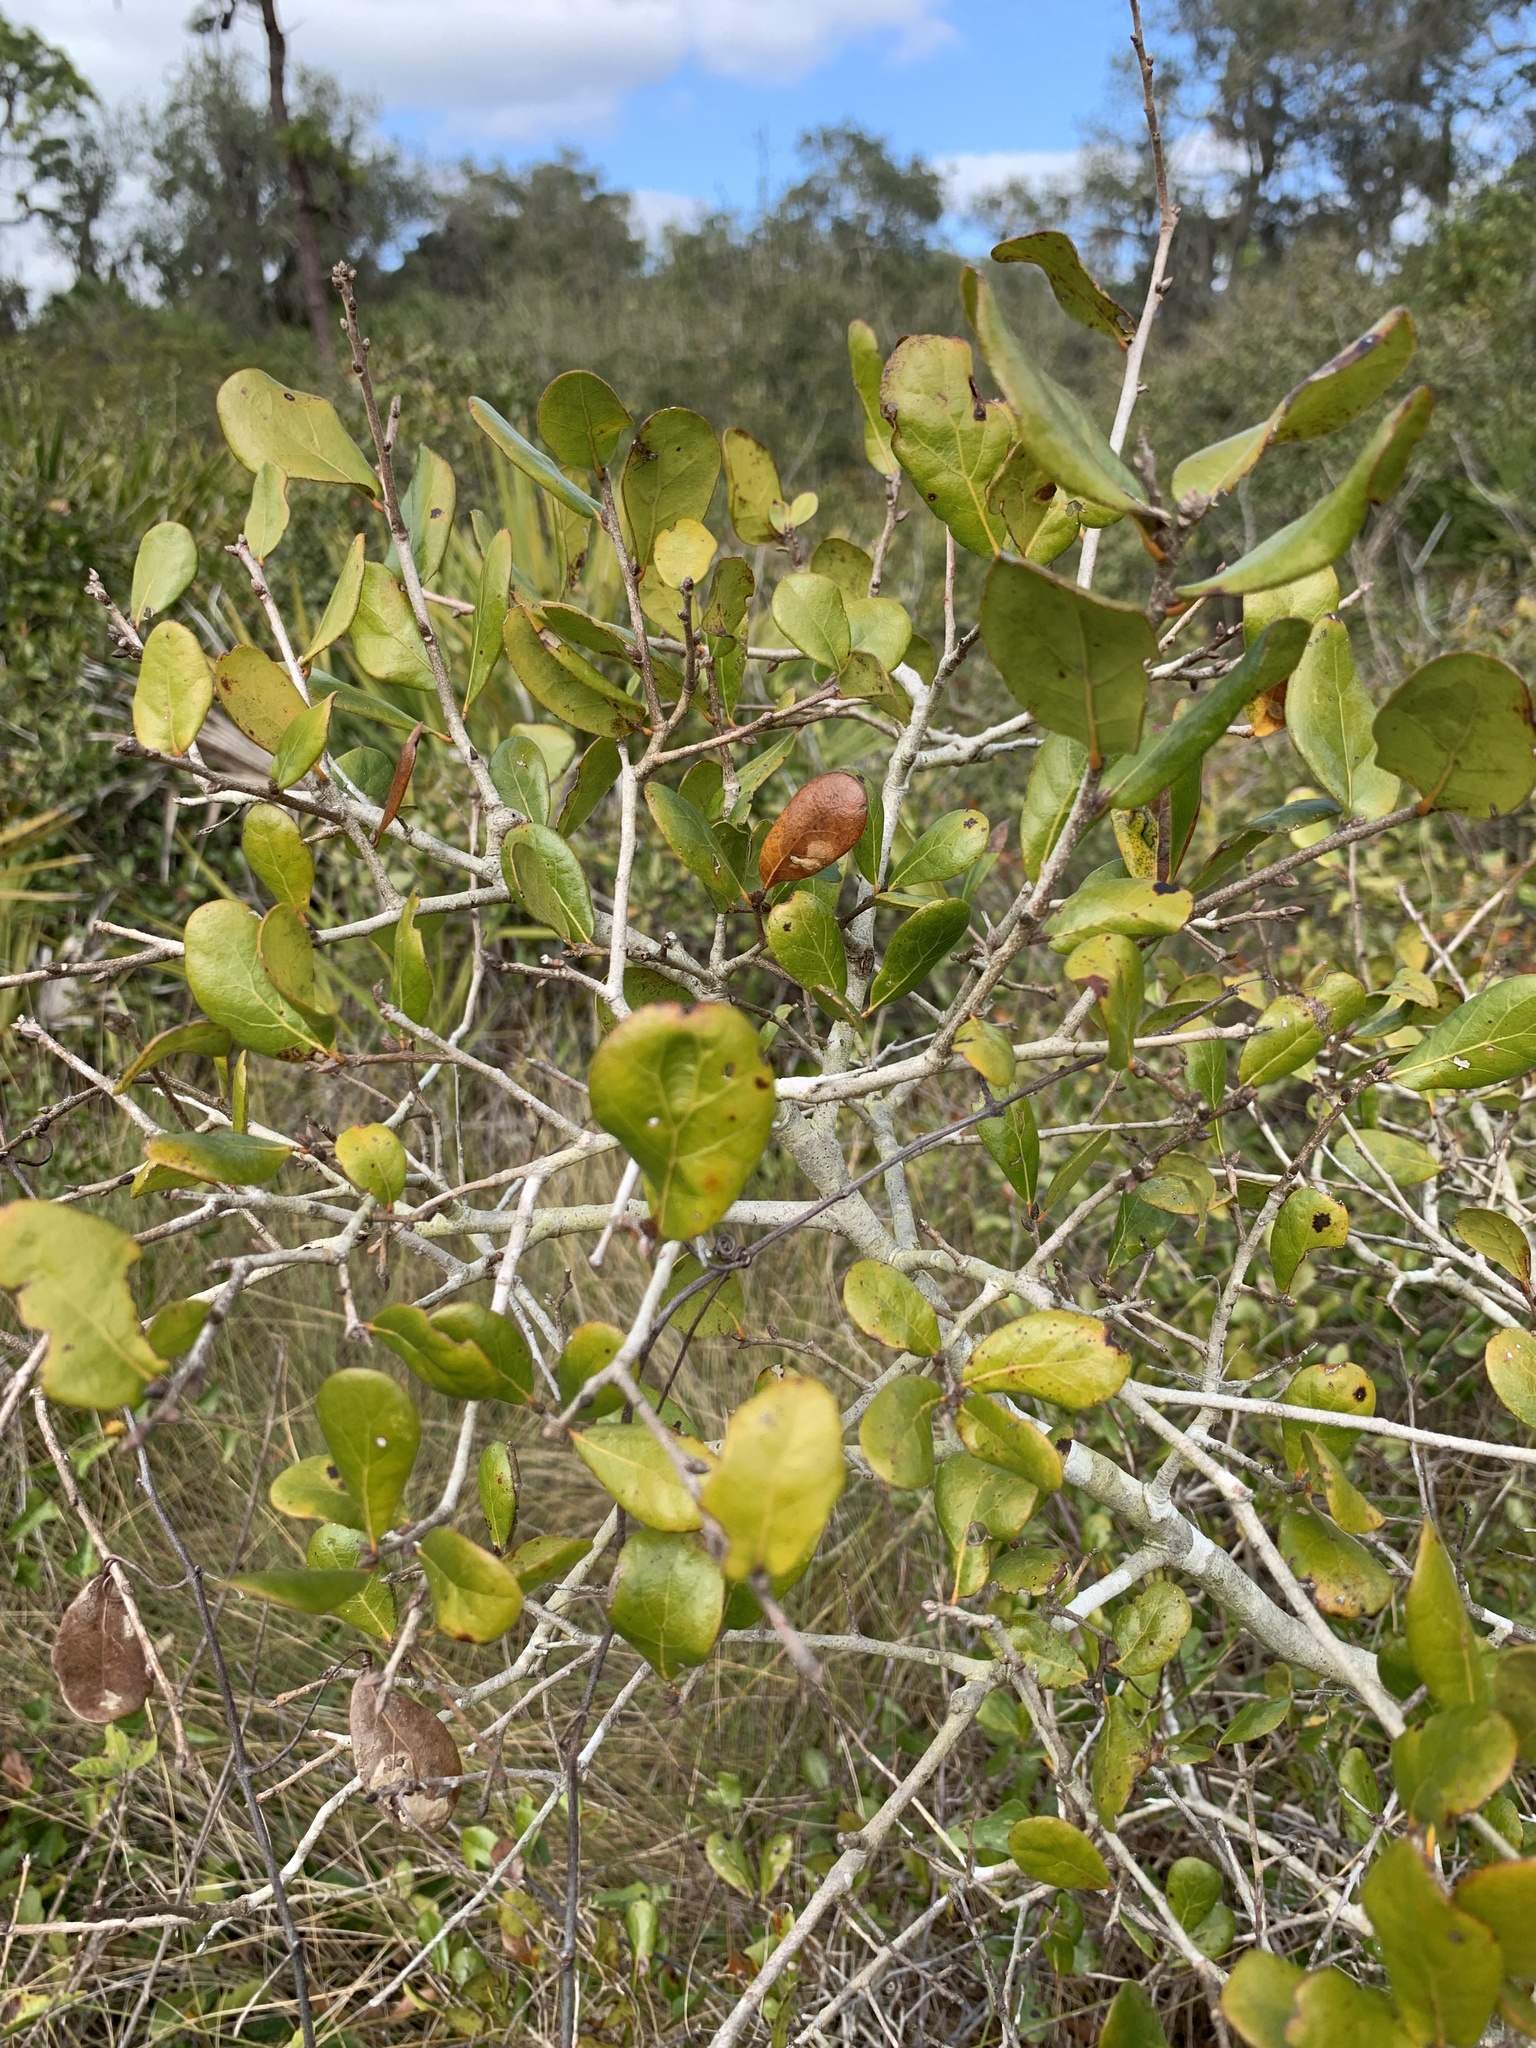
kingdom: Plantae
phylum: Tracheophyta
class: Magnoliopsida
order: Fagales
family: Fagaceae
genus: Quercus
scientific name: Quercus myrtifolia
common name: Myrtle oak
